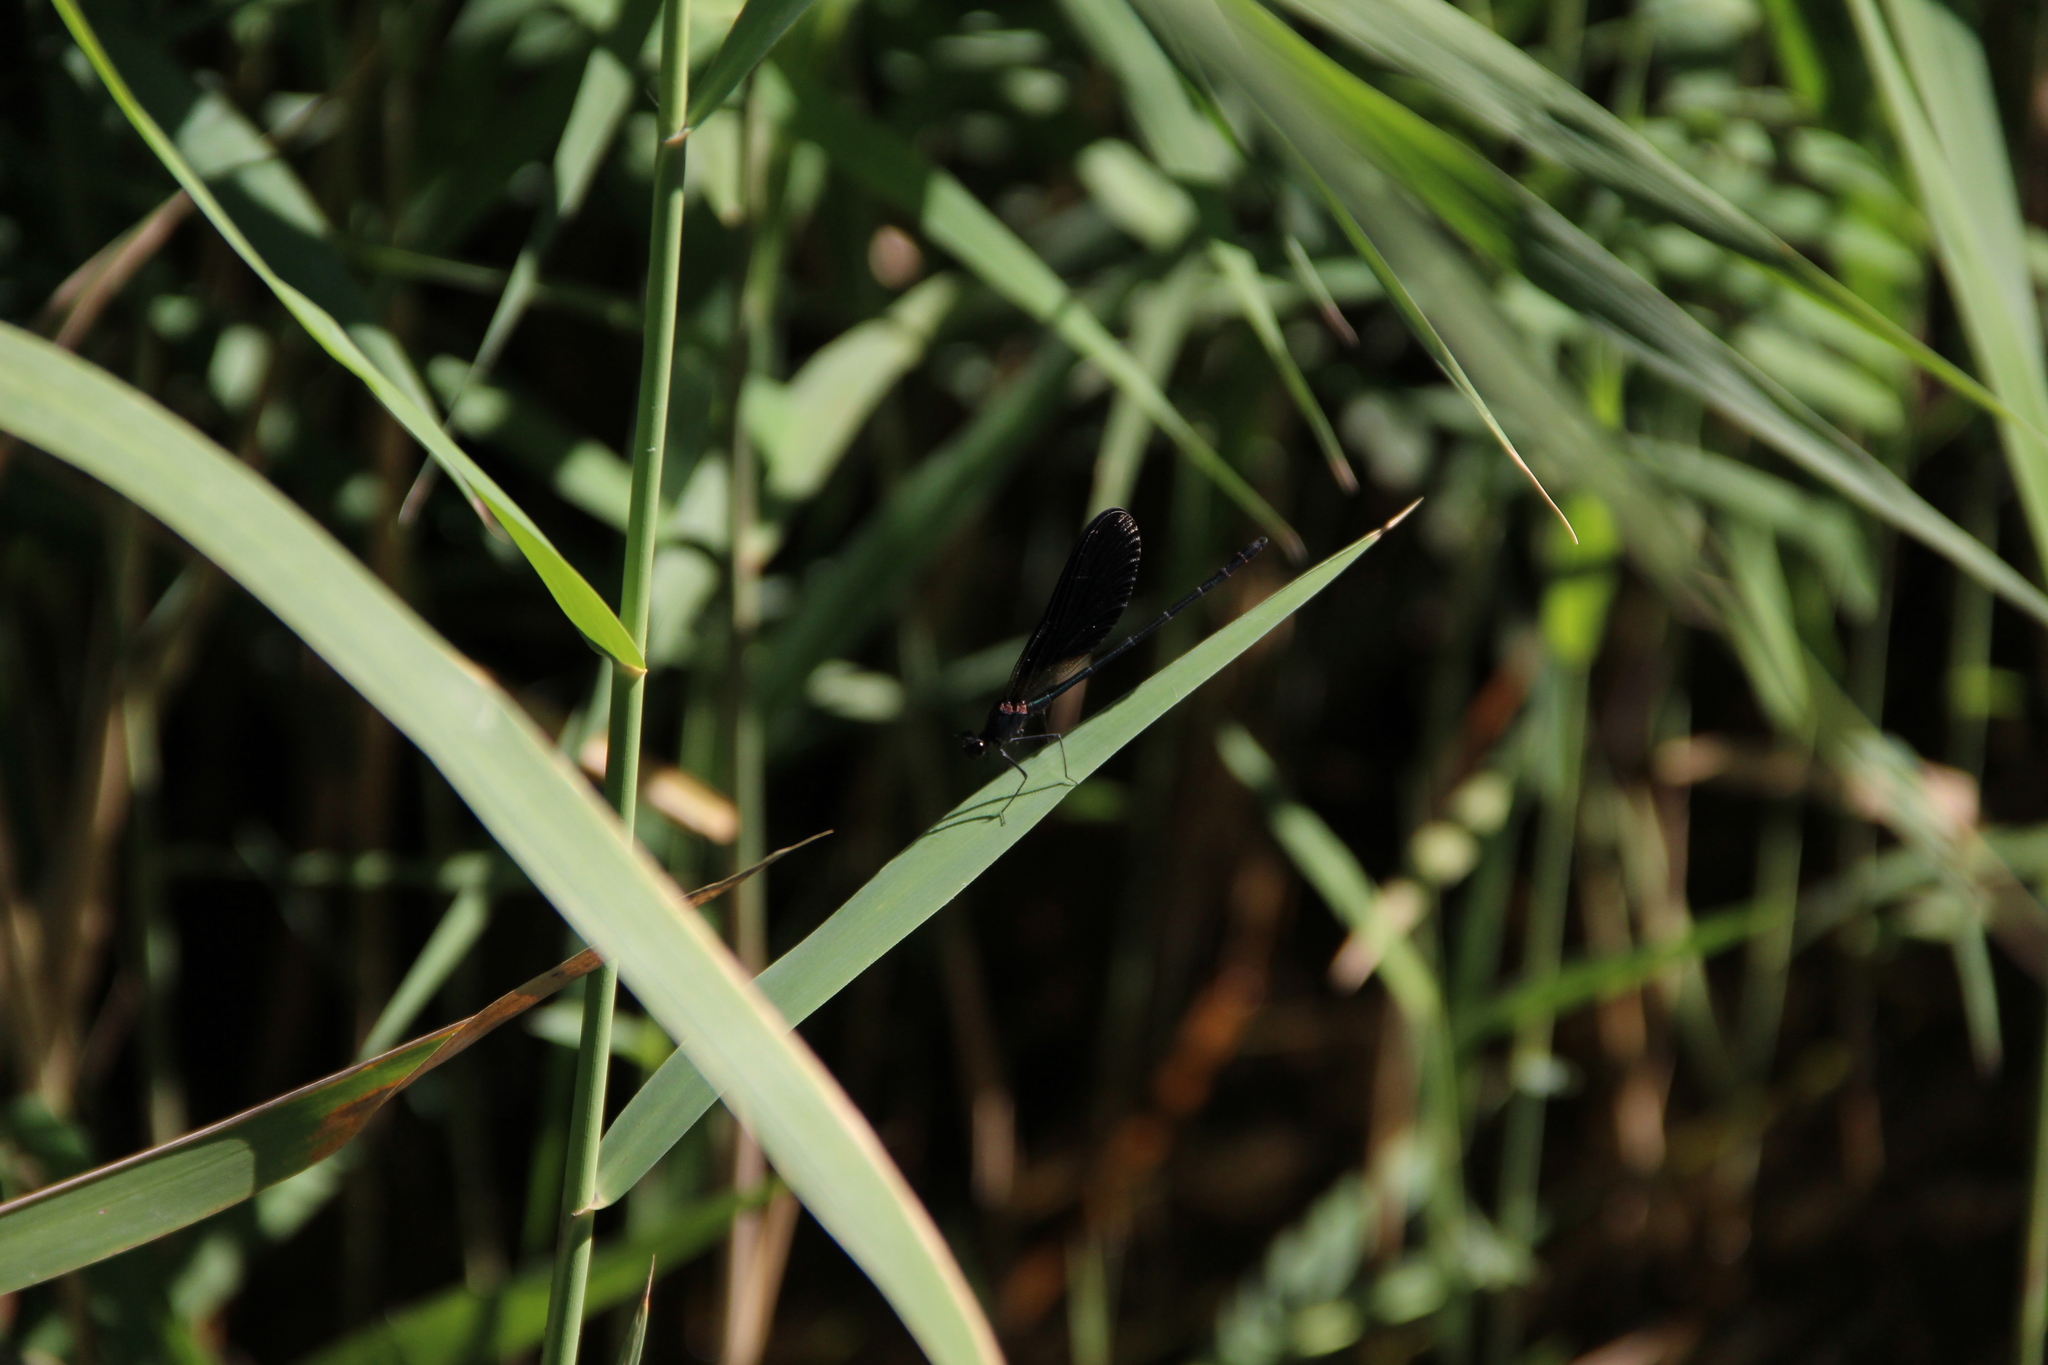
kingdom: Animalia
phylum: Arthropoda
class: Insecta
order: Odonata
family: Calopterygidae
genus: Calopteryx
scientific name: Calopteryx haemorrhoidalis
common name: Copper demoiselle
